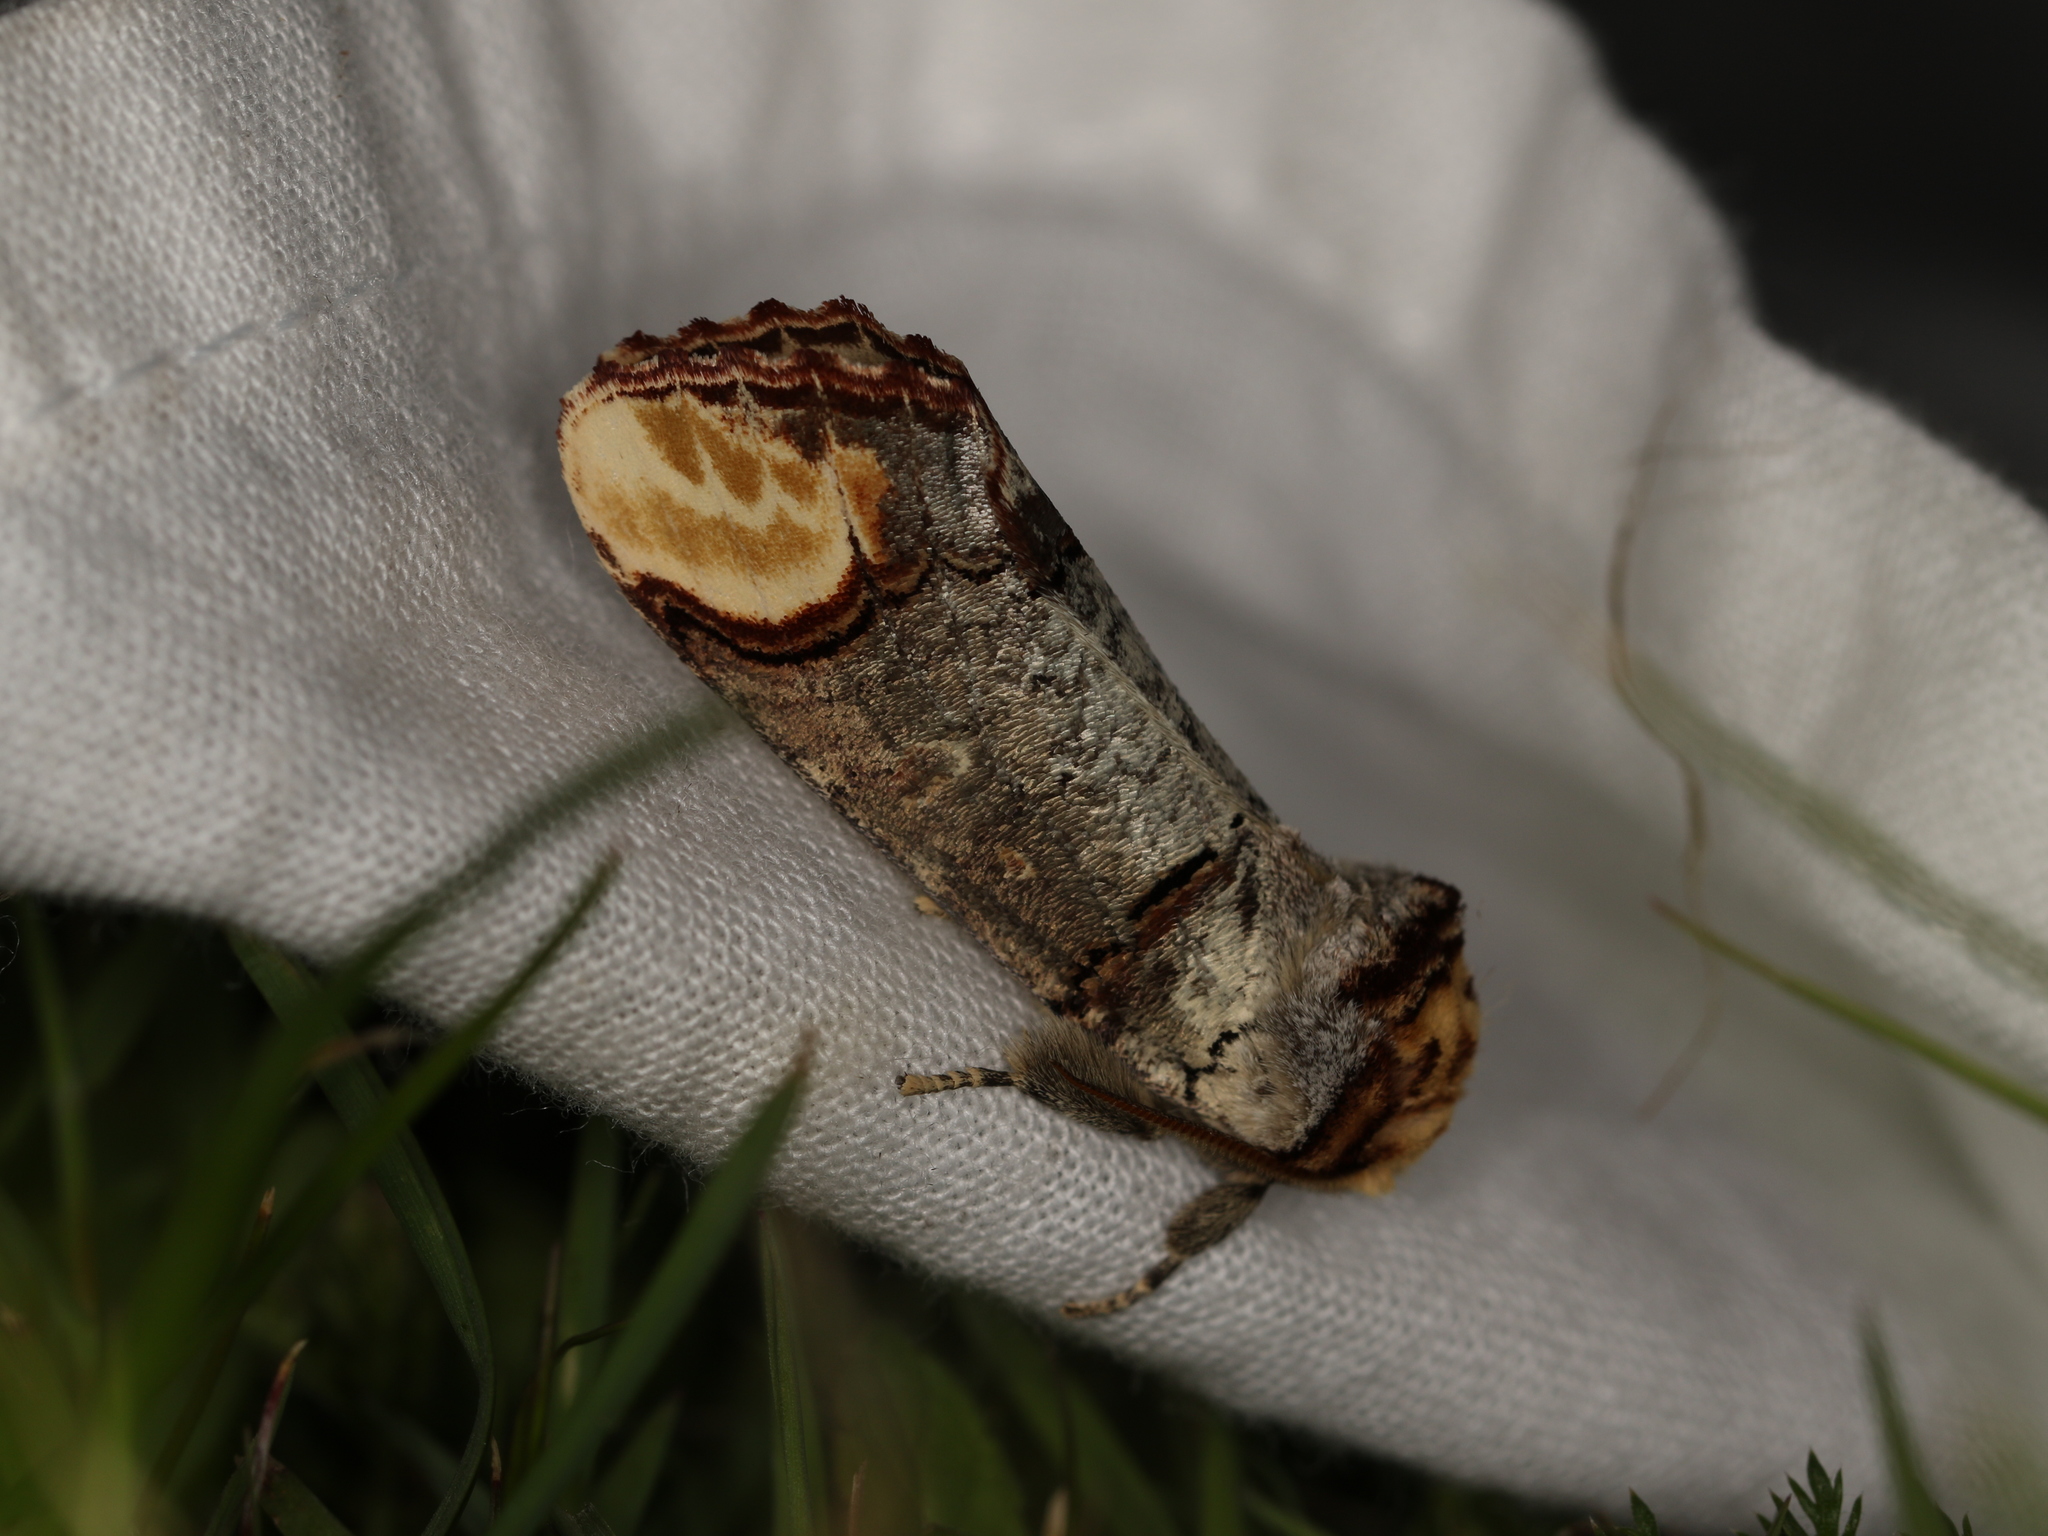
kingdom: Animalia
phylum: Arthropoda
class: Insecta
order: Lepidoptera
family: Notodontidae
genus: Phalera
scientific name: Phalera bucephala
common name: Buff-tip
